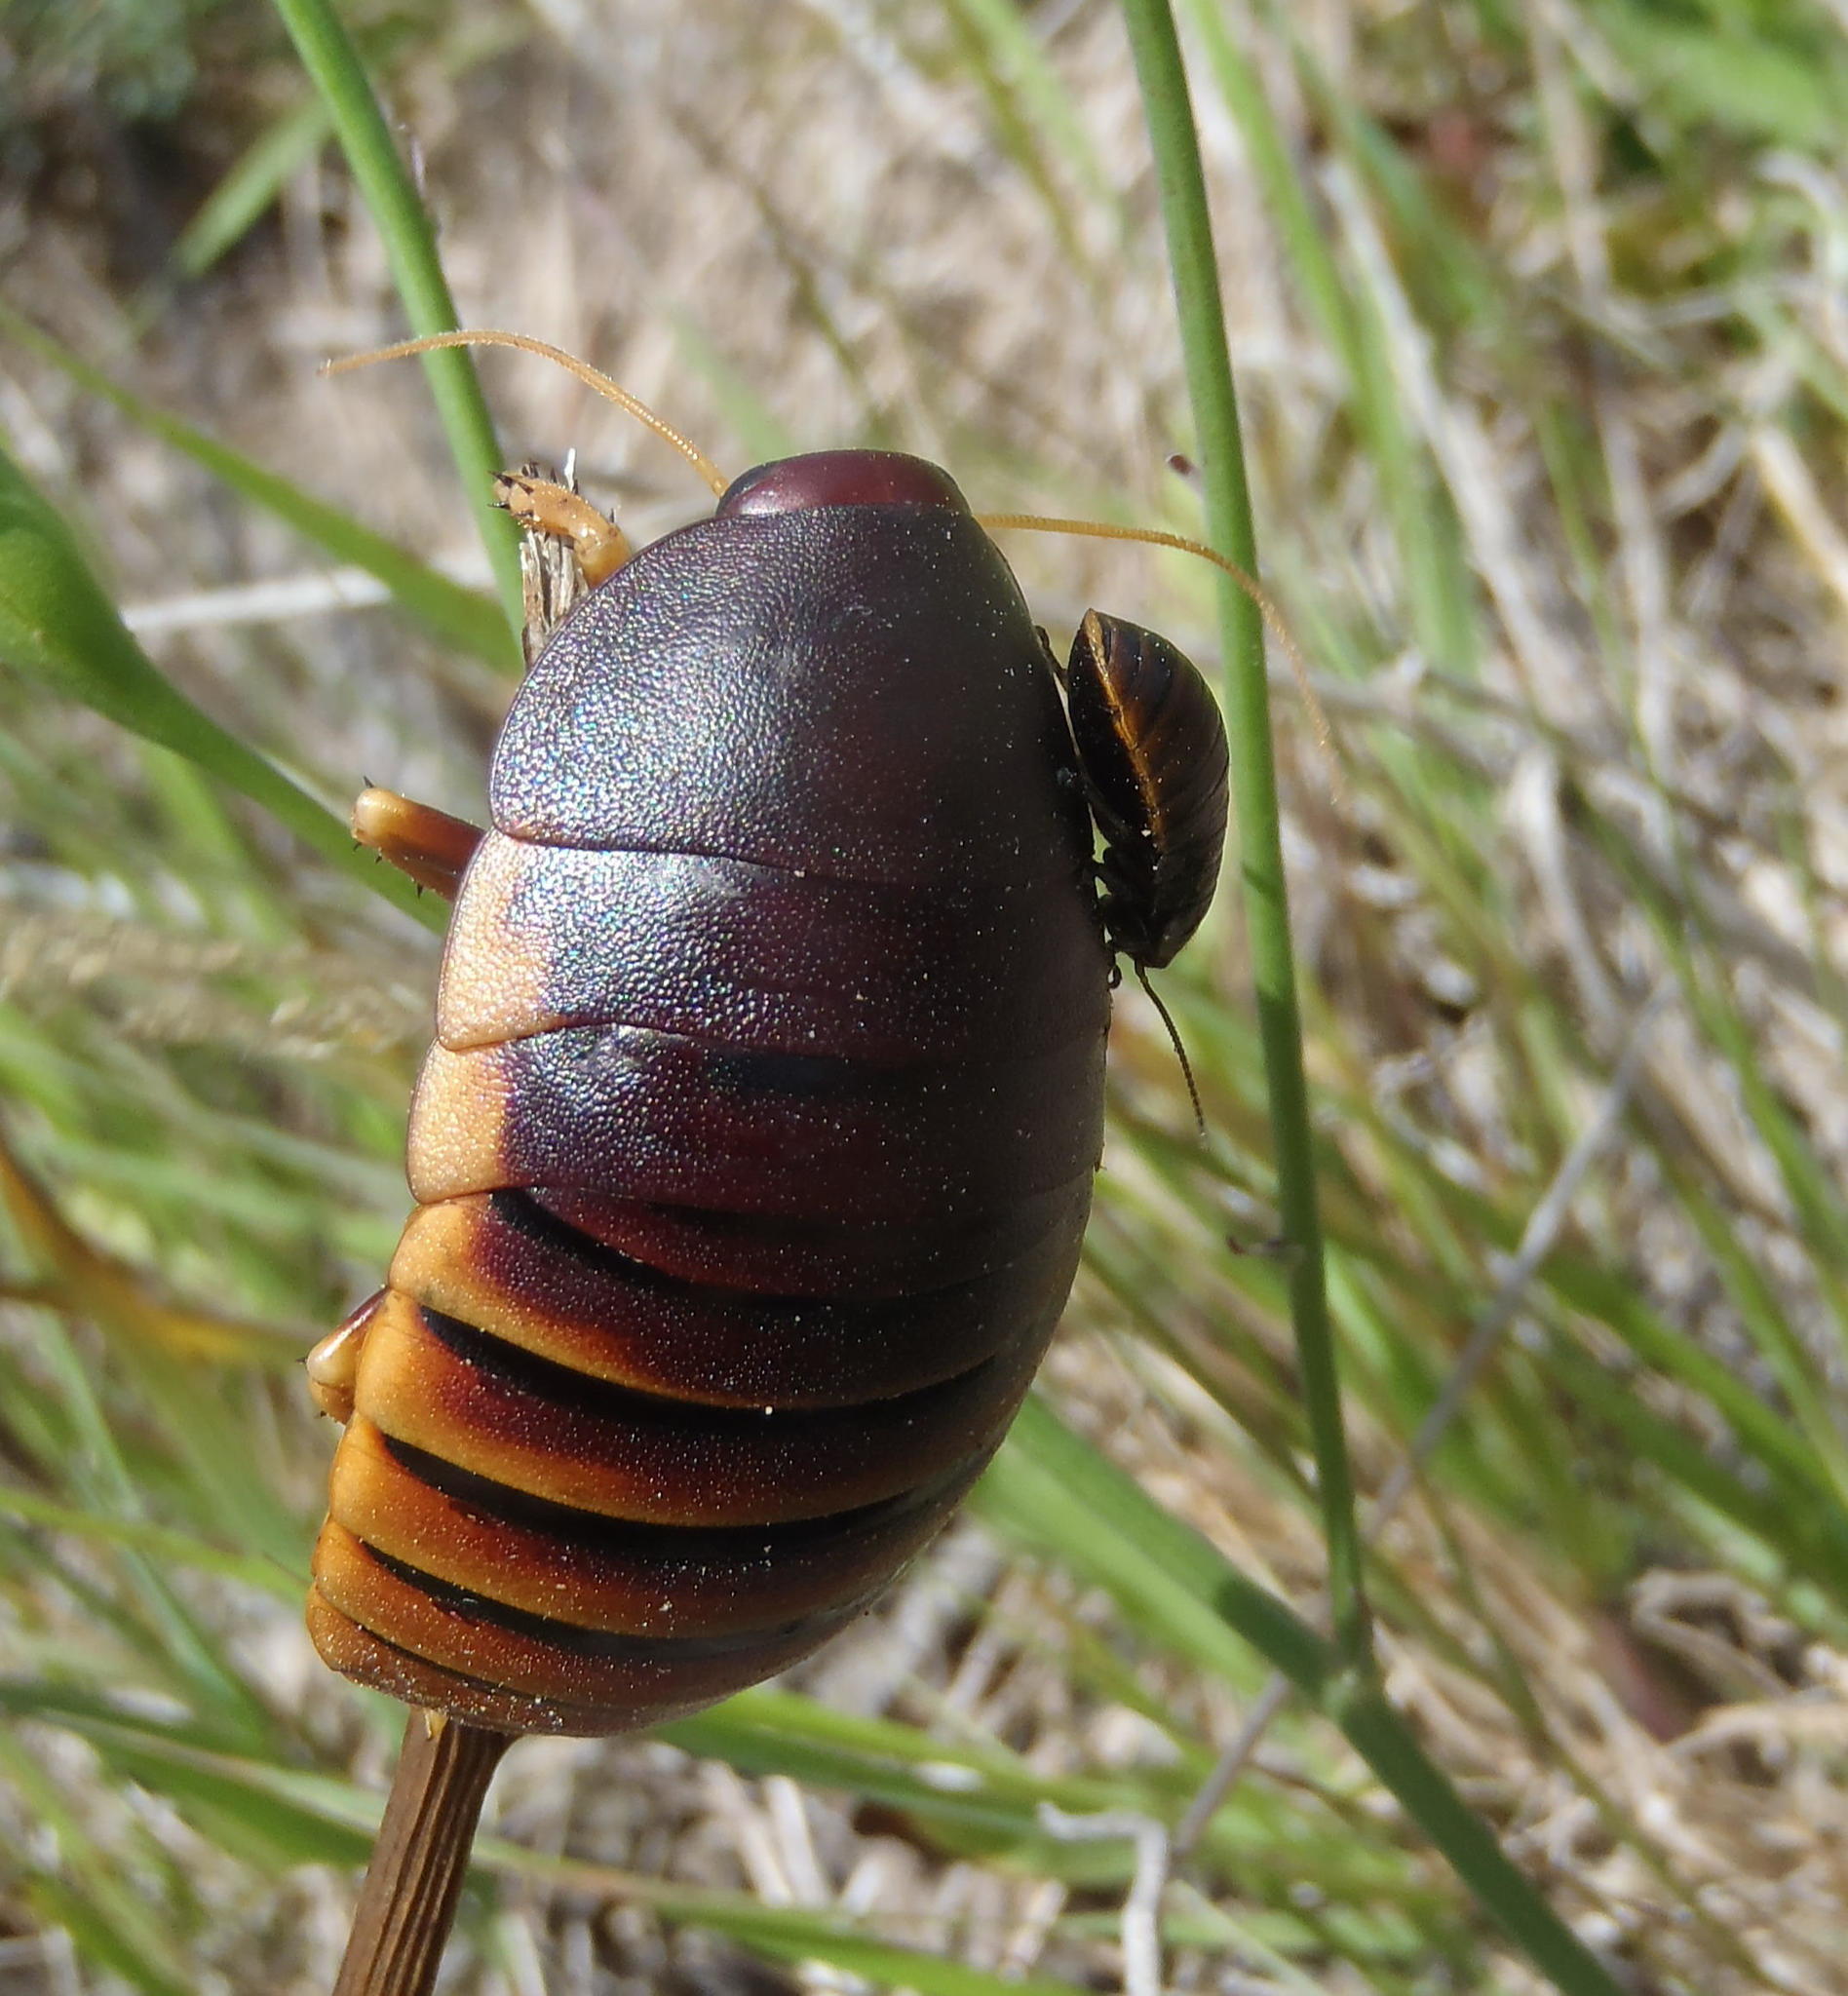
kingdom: Animalia
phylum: Arthropoda
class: Insecta
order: Blattodea
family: Blaberidae
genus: Aptera
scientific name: Aptera fusca
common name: Cape mountain cockroach
